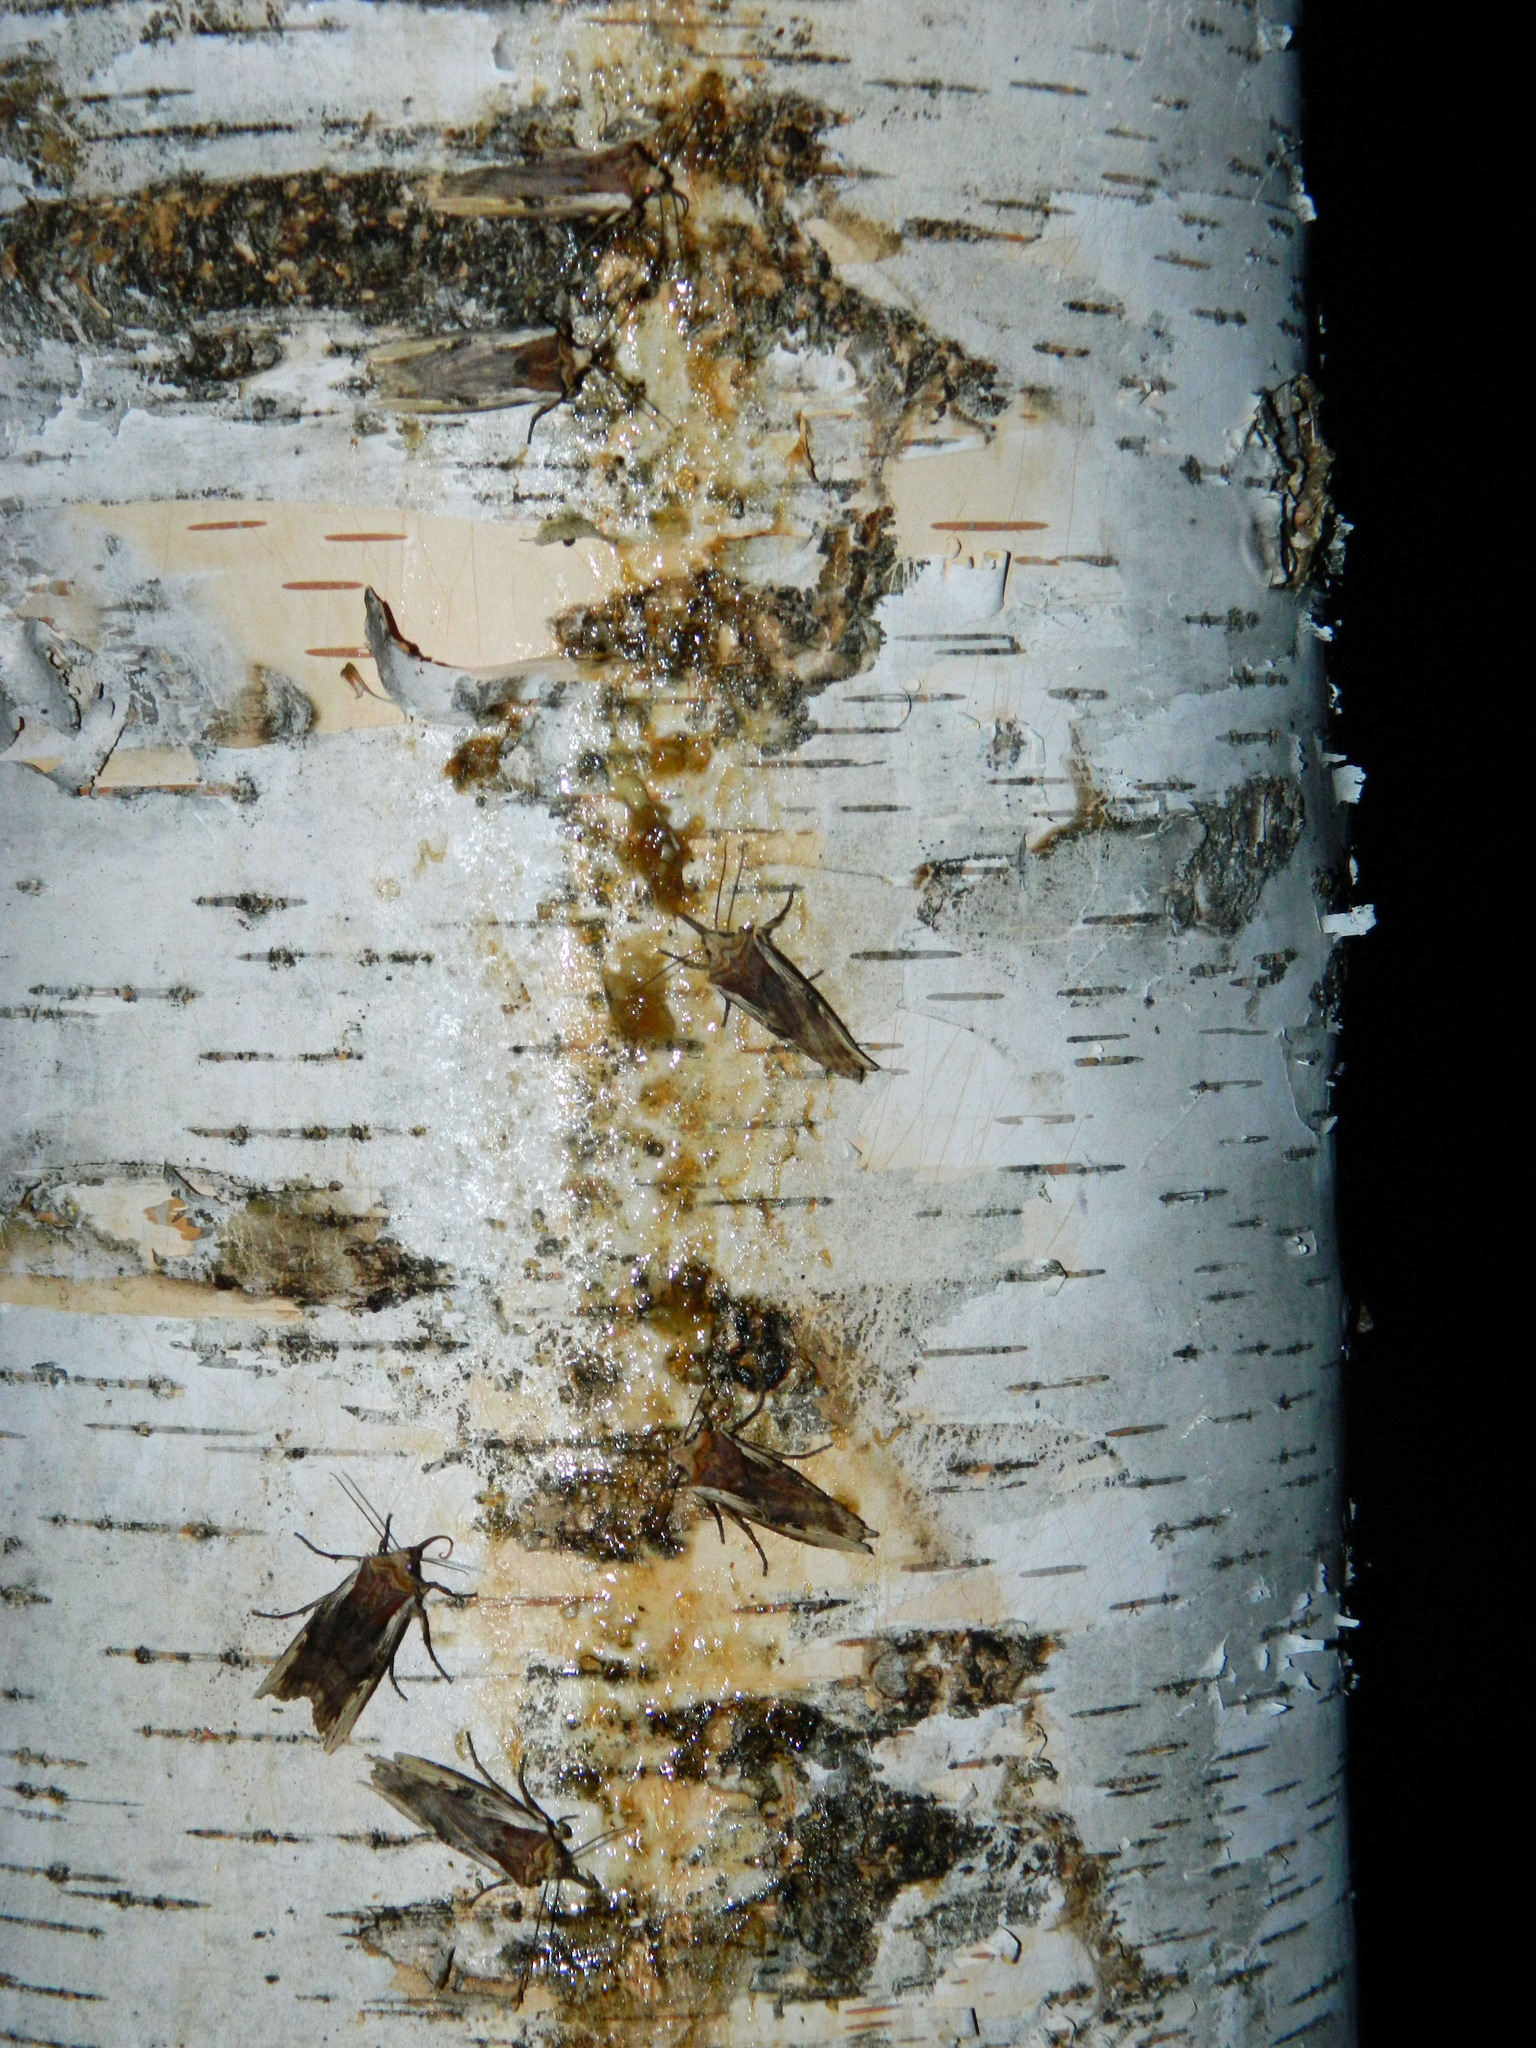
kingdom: Animalia
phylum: Arthropoda
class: Insecta
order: Lepidoptera
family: Noctuidae
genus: Xylena
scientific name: Xylena curvimacula
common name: Dot-and-dash swordgrass moth
